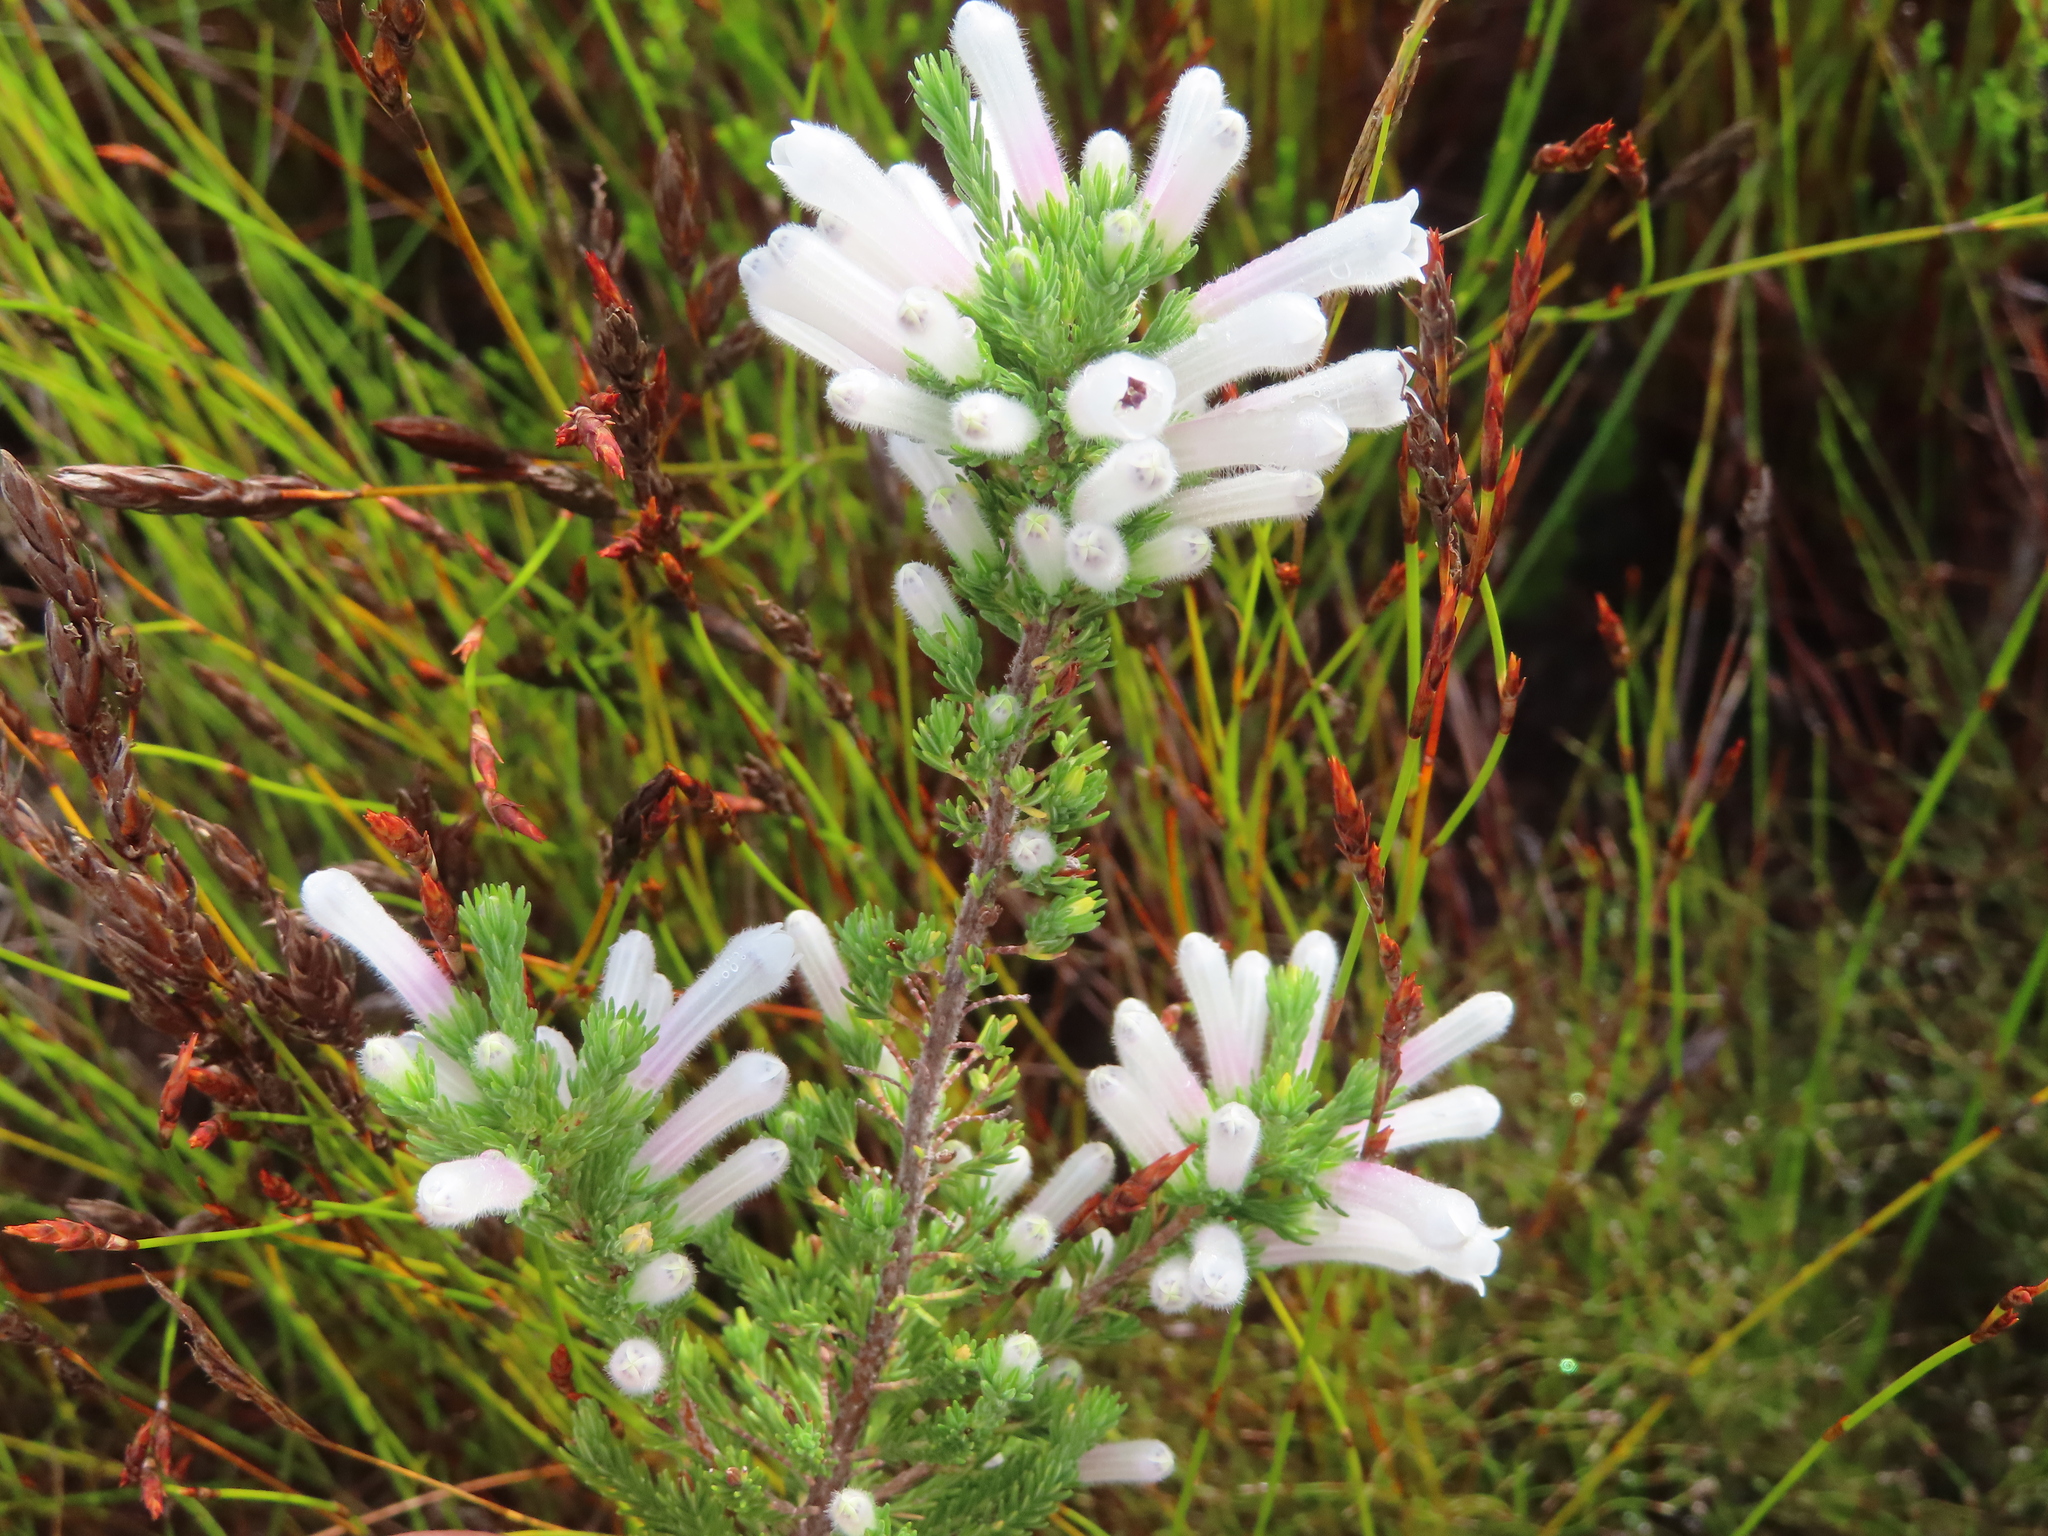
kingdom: Plantae
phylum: Tracheophyta
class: Magnoliopsida
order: Ericales
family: Ericaceae
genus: Erica
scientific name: Erica perspicua
